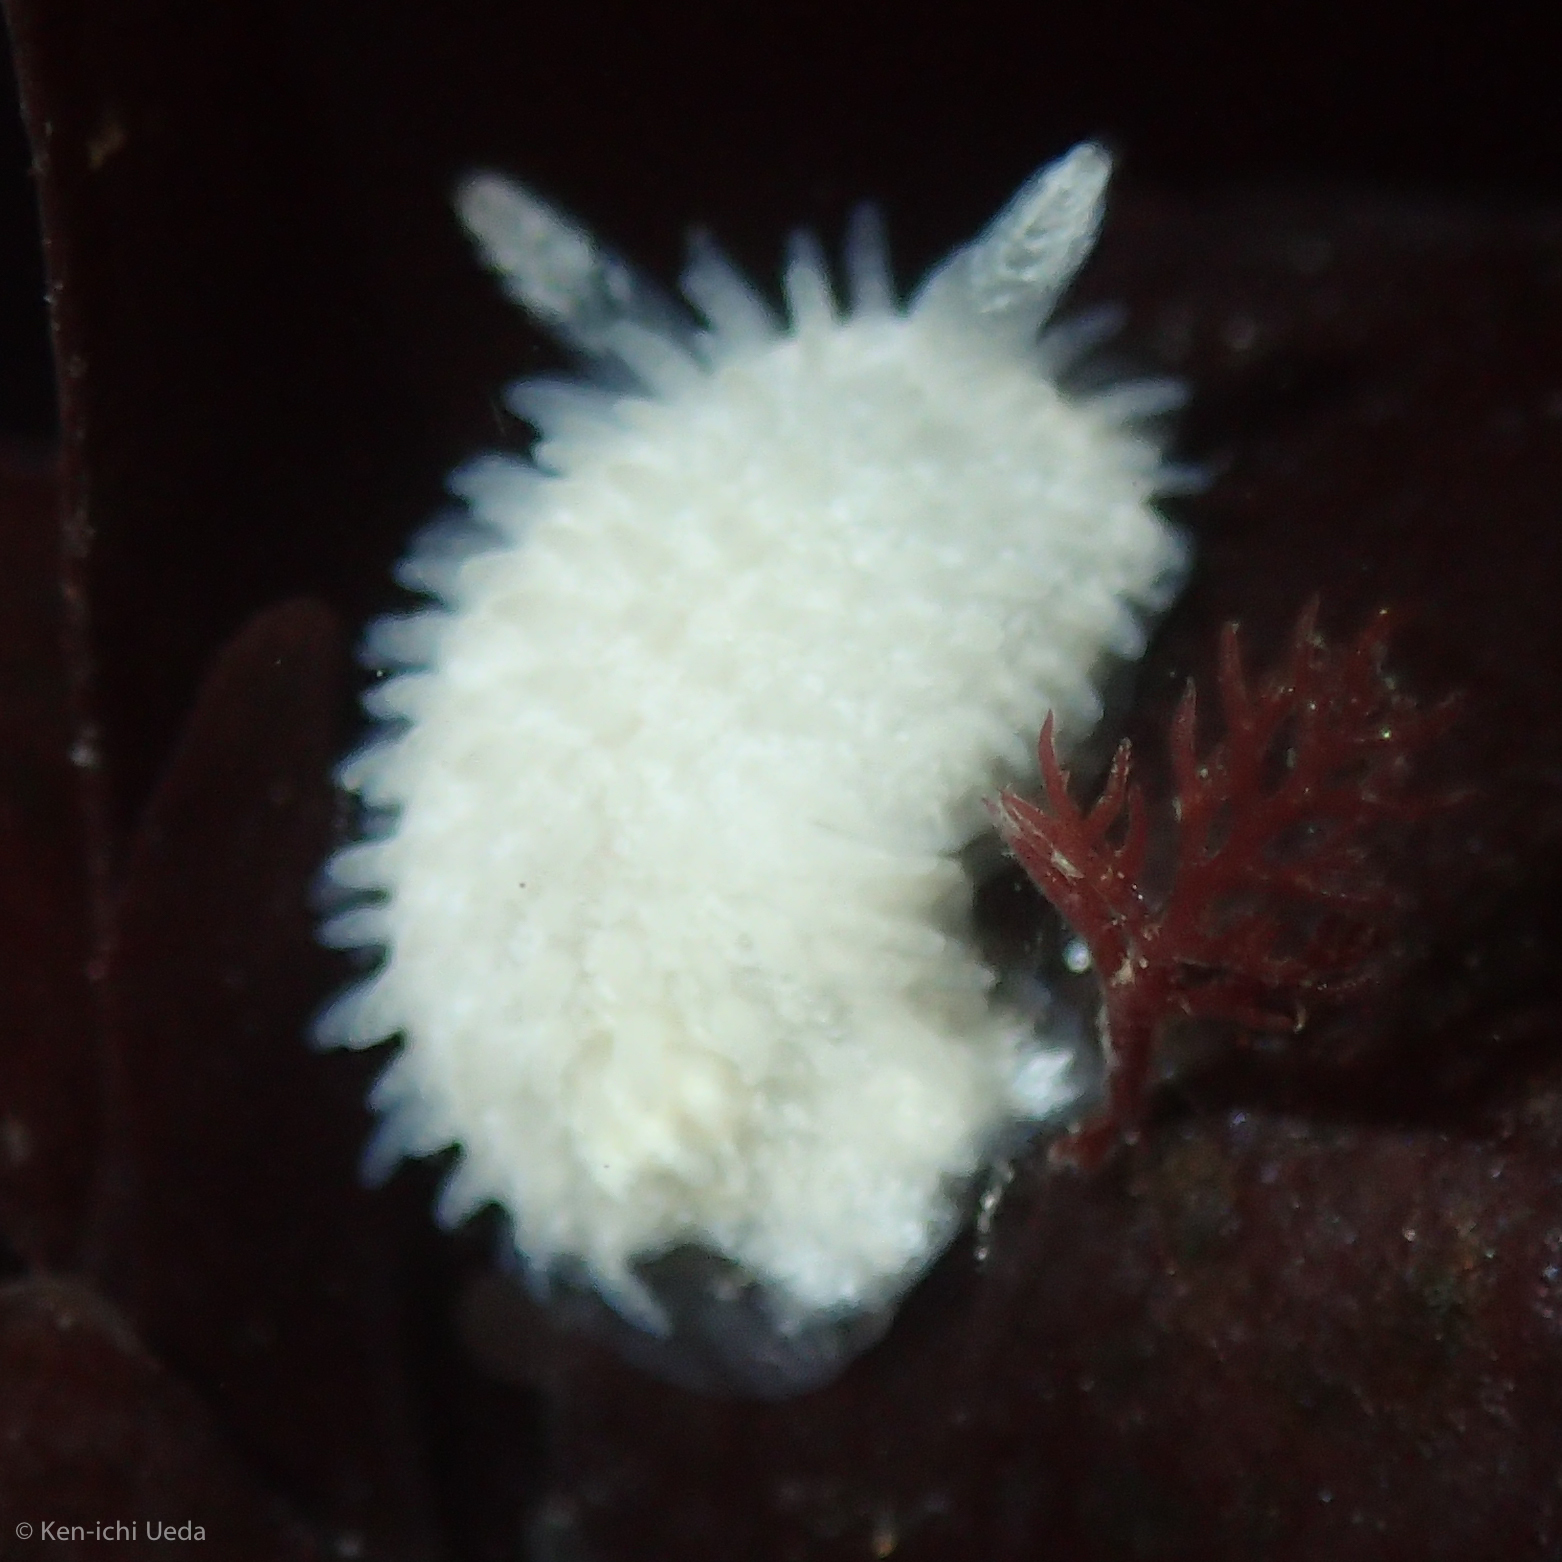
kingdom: Animalia
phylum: Mollusca
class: Gastropoda
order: Nudibranchia
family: Calycidorididae
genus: Diaphorodoris
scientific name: Diaphorodoris lirulatocauda
